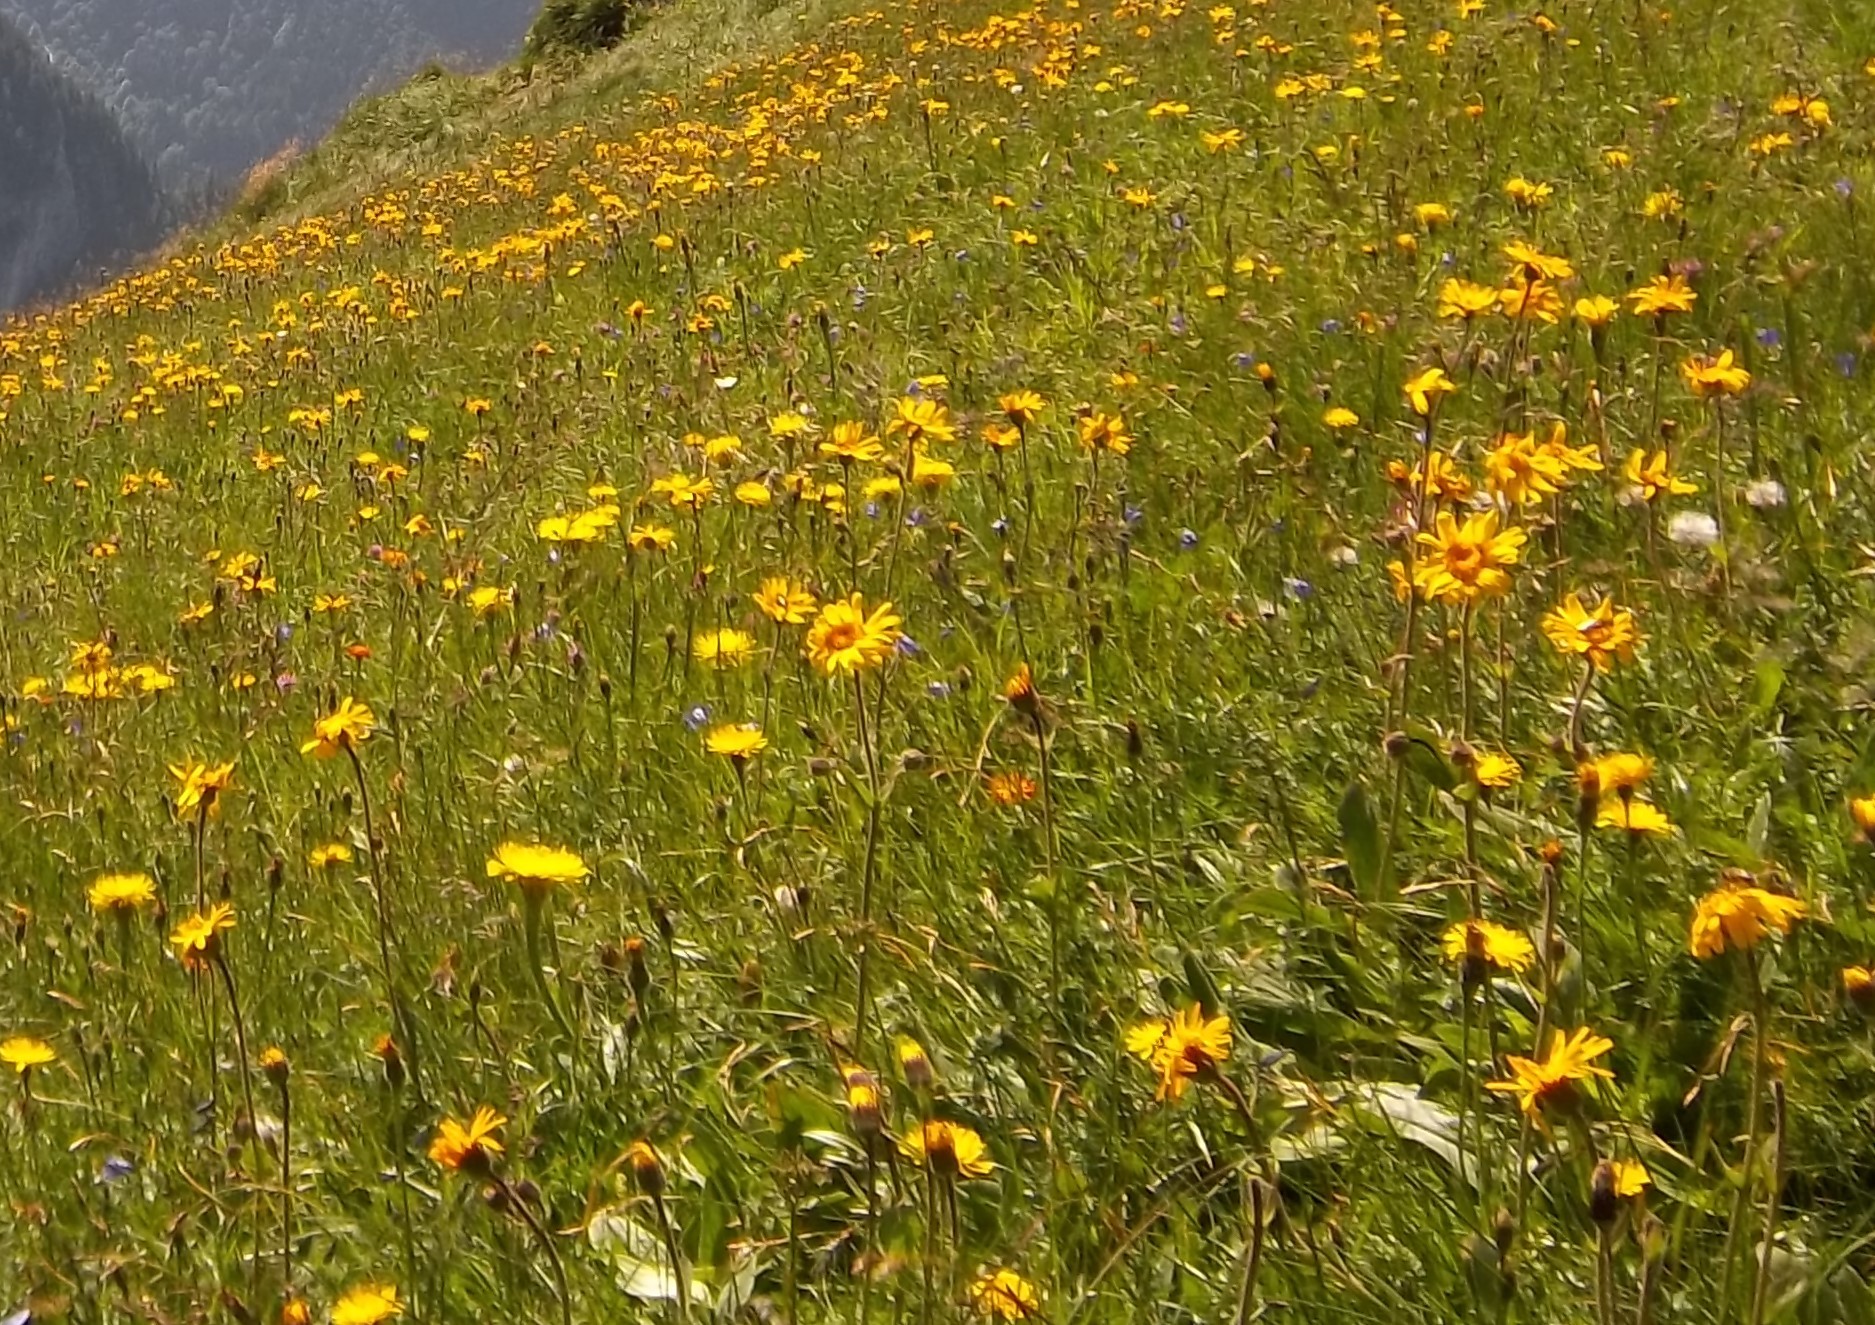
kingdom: Plantae
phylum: Tracheophyta
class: Magnoliopsida
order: Asterales
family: Asteraceae
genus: Arnica
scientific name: Arnica montana
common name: Leopard's bane
